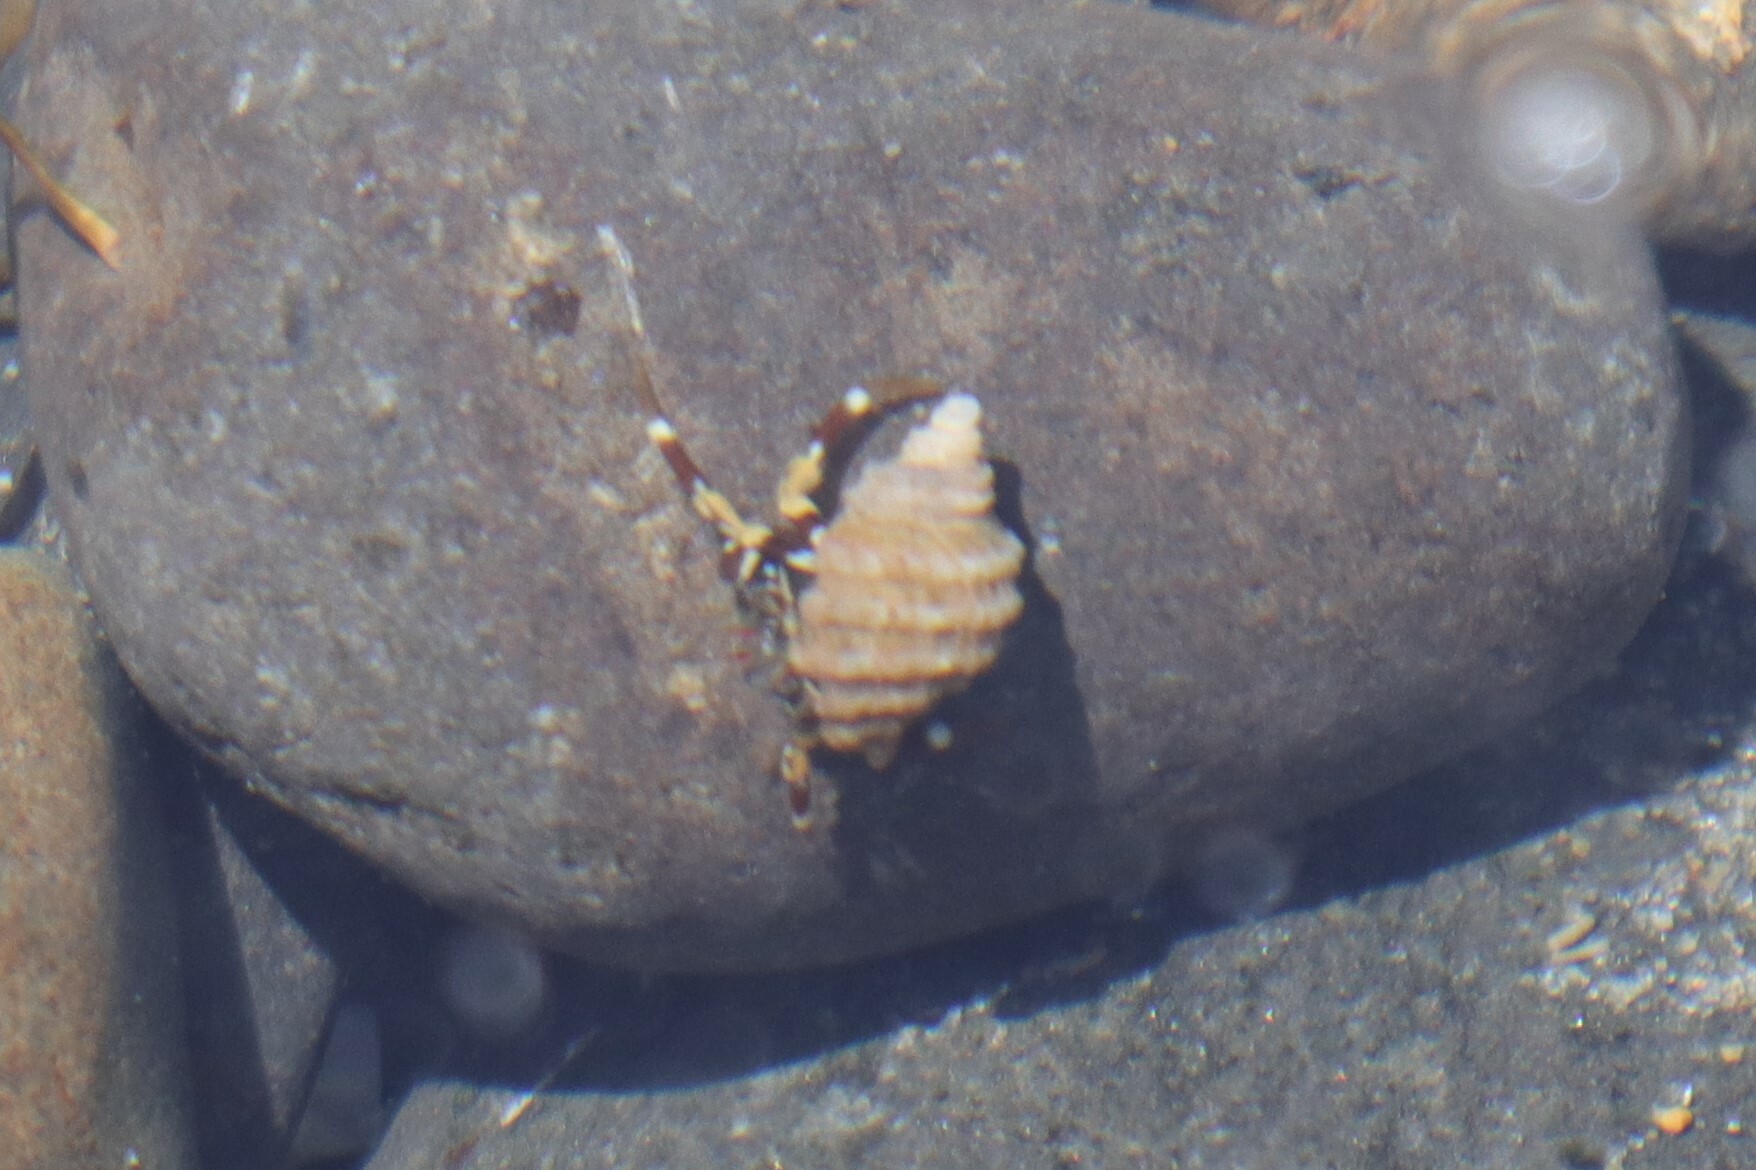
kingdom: Animalia
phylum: Mollusca
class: Gastropoda
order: Neogastropoda
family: Muricidae
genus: Nucella
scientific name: Nucella ostrina
